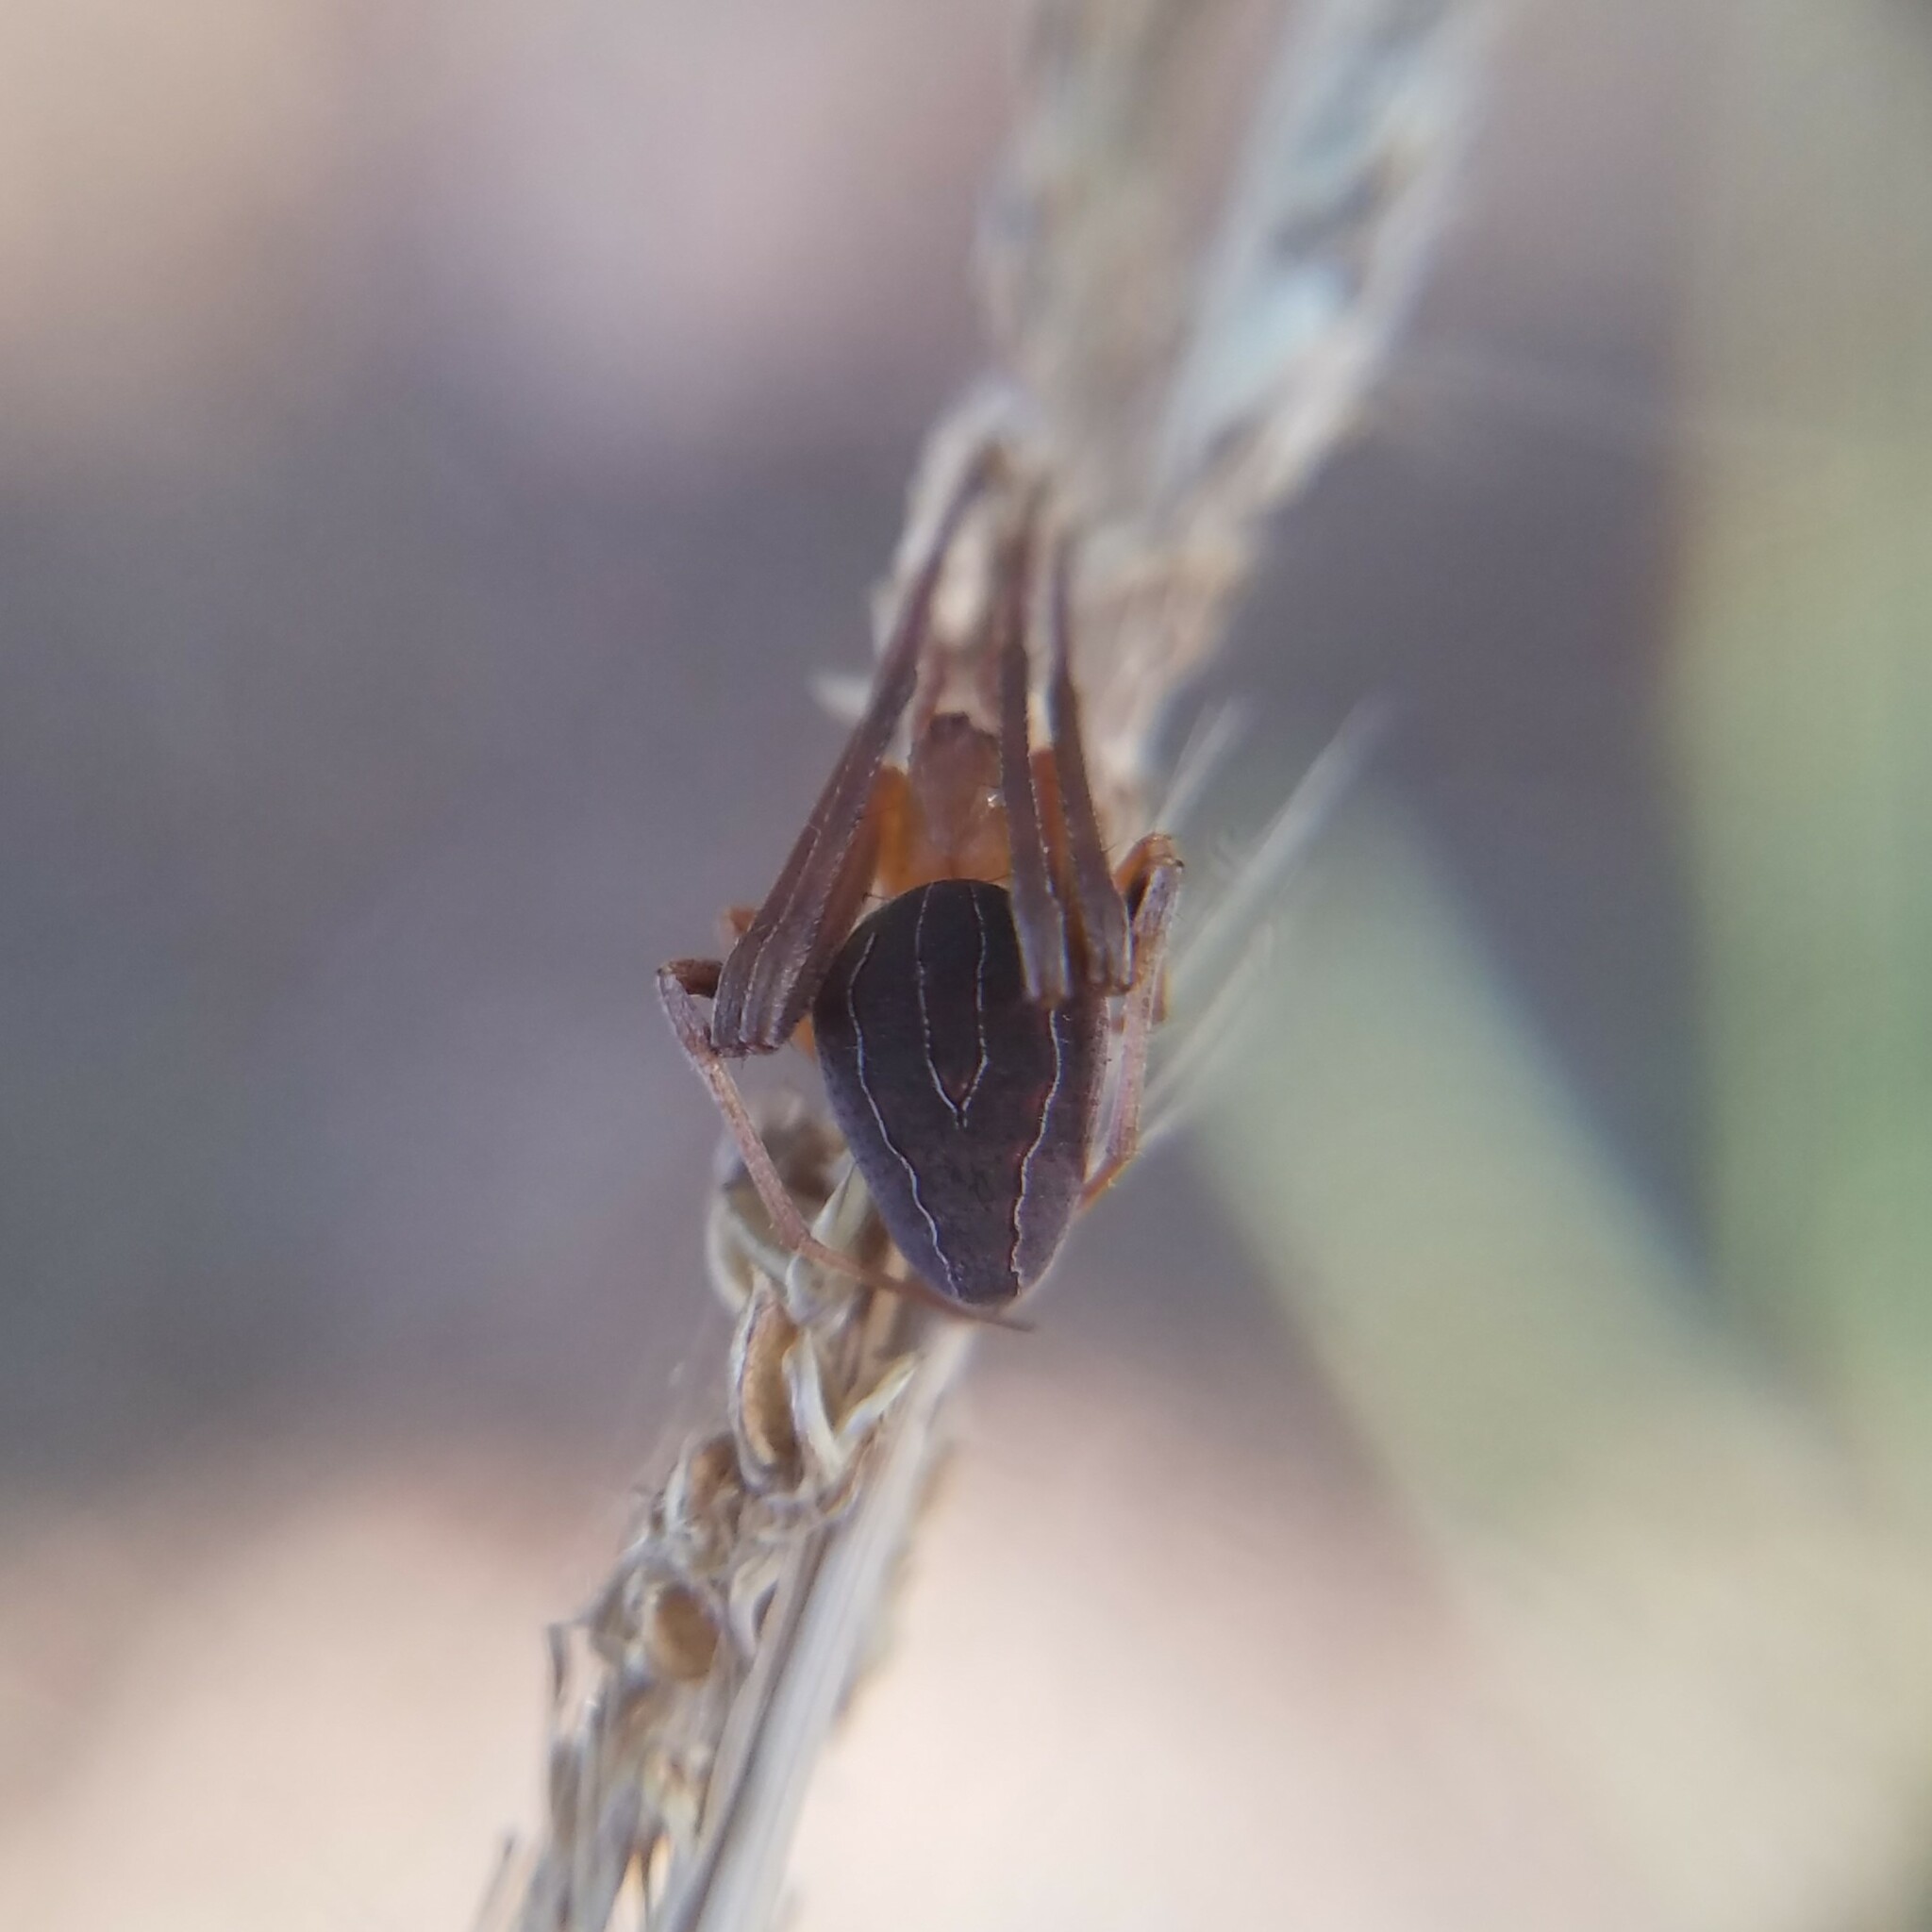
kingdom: Animalia
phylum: Arthropoda
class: Arachnida
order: Araneae
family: Araneidae
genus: Acacesia
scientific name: Acacesia hamata
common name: Orb weavers
